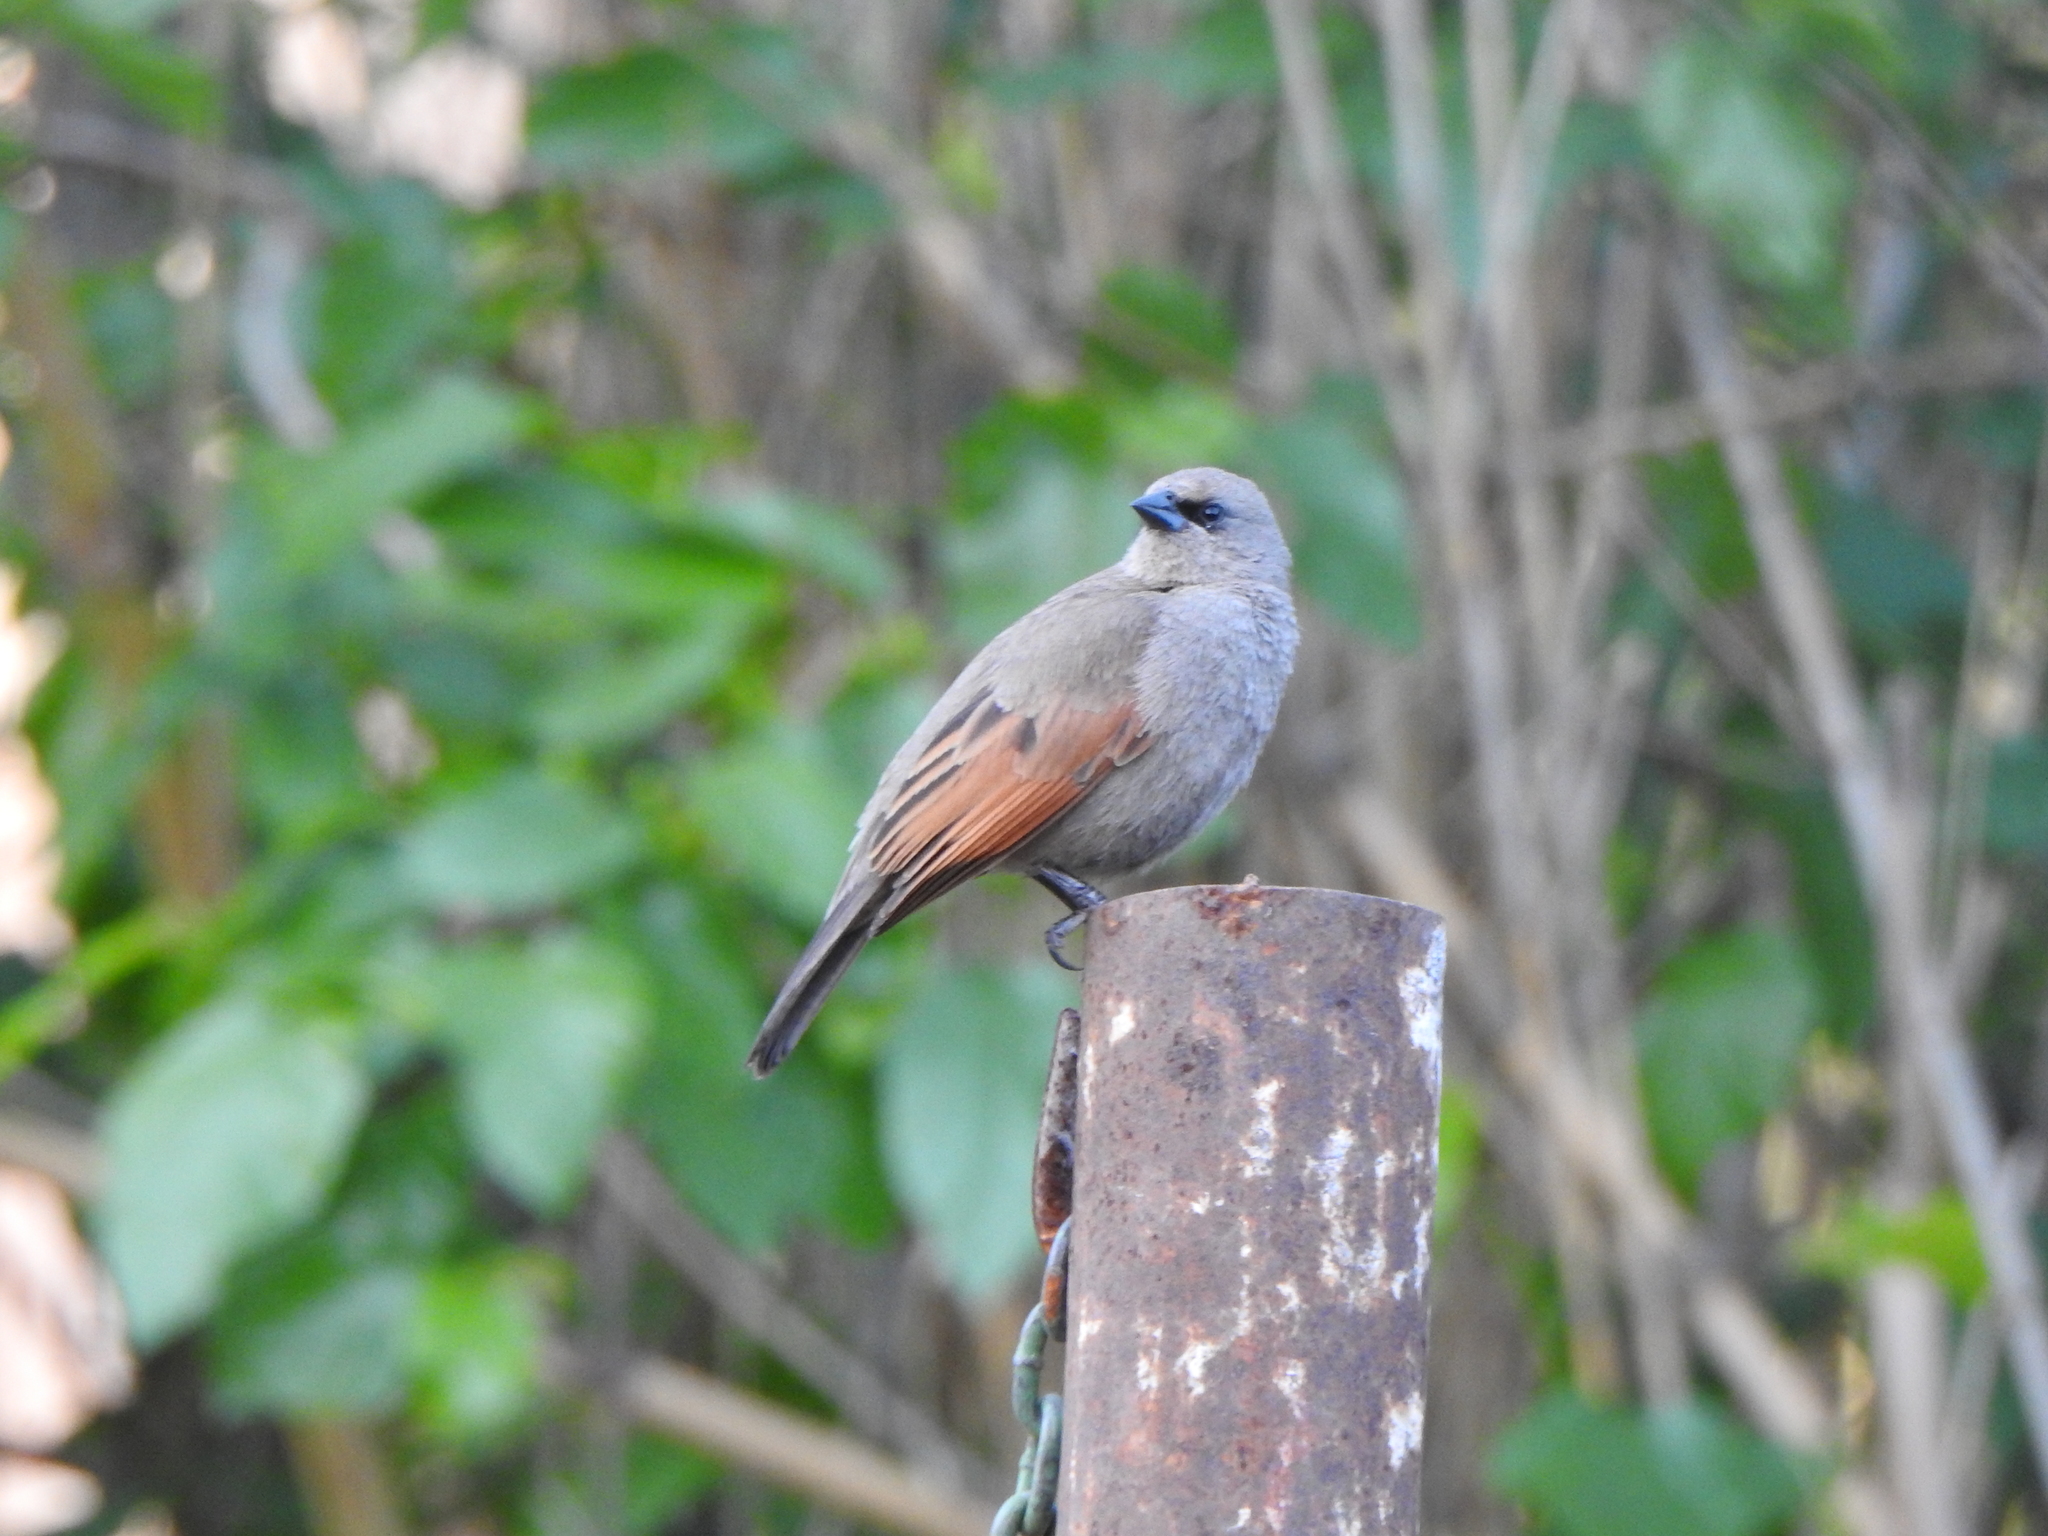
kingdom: Animalia
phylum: Chordata
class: Aves
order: Passeriformes
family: Icteridae
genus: Agelaioides
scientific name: Agelaioides badius
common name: Baywing
